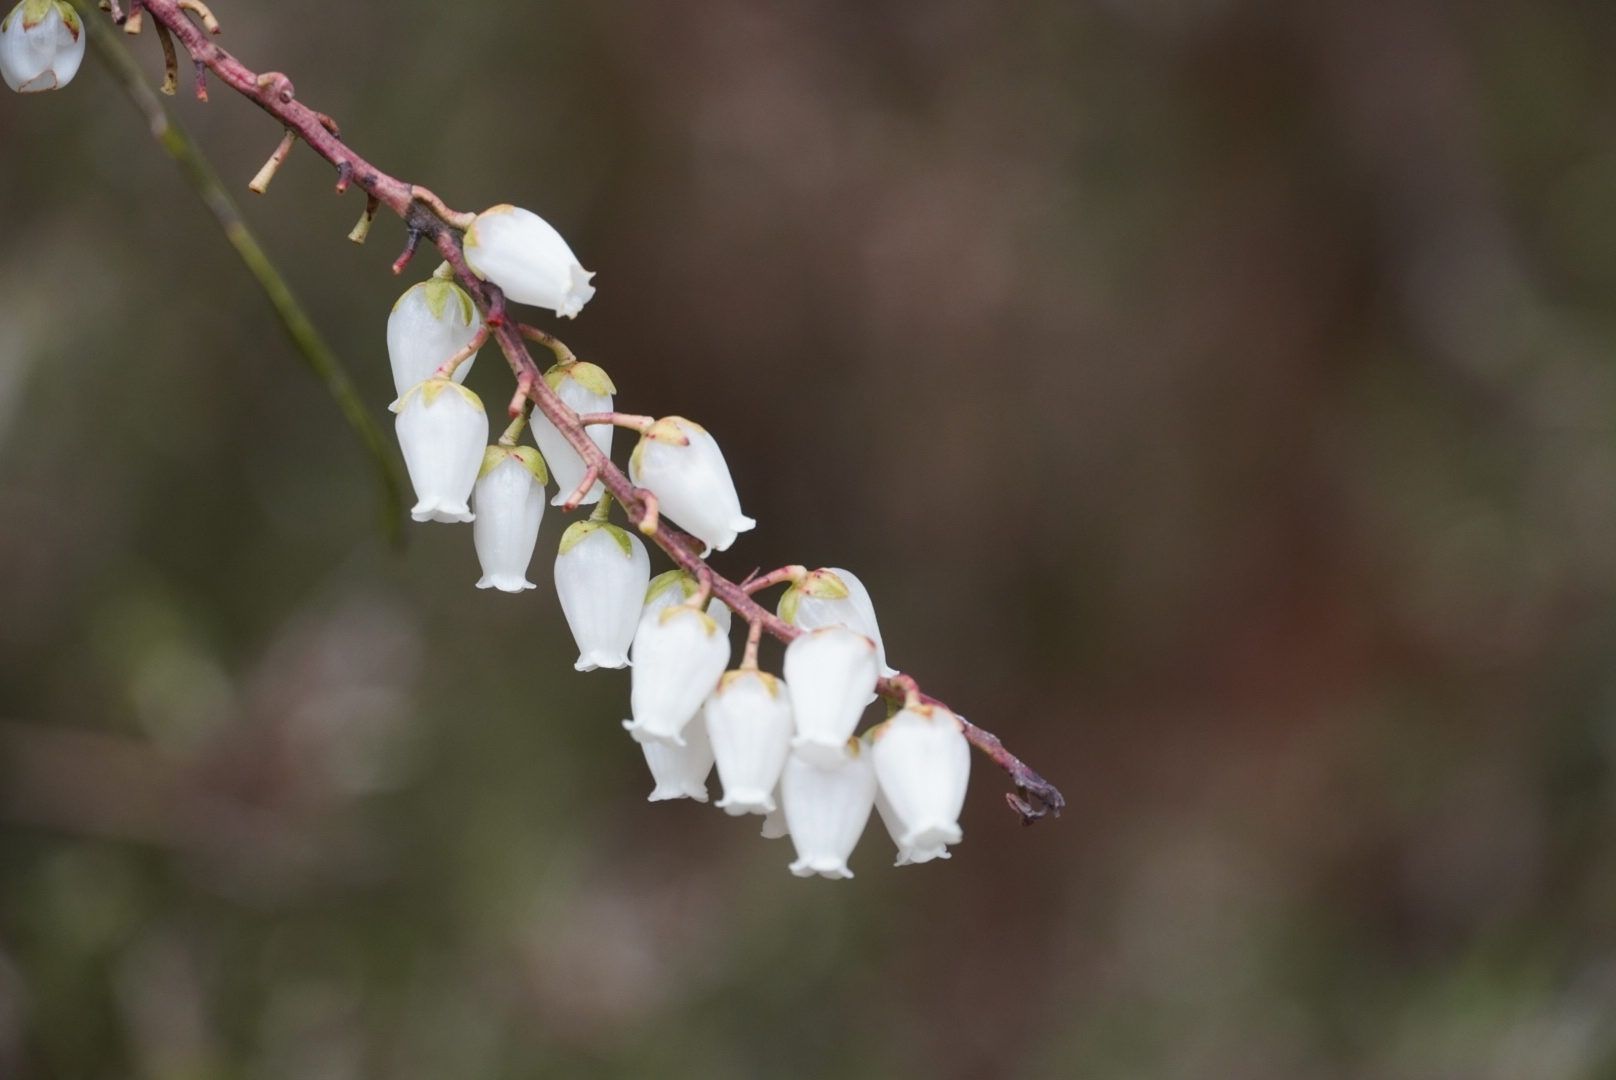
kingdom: Plantae
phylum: Tracheophyta
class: Magnoliopsida
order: Ericales
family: Ericaceae
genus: Pieris
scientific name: Pieris japonica
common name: Japanese pieris
